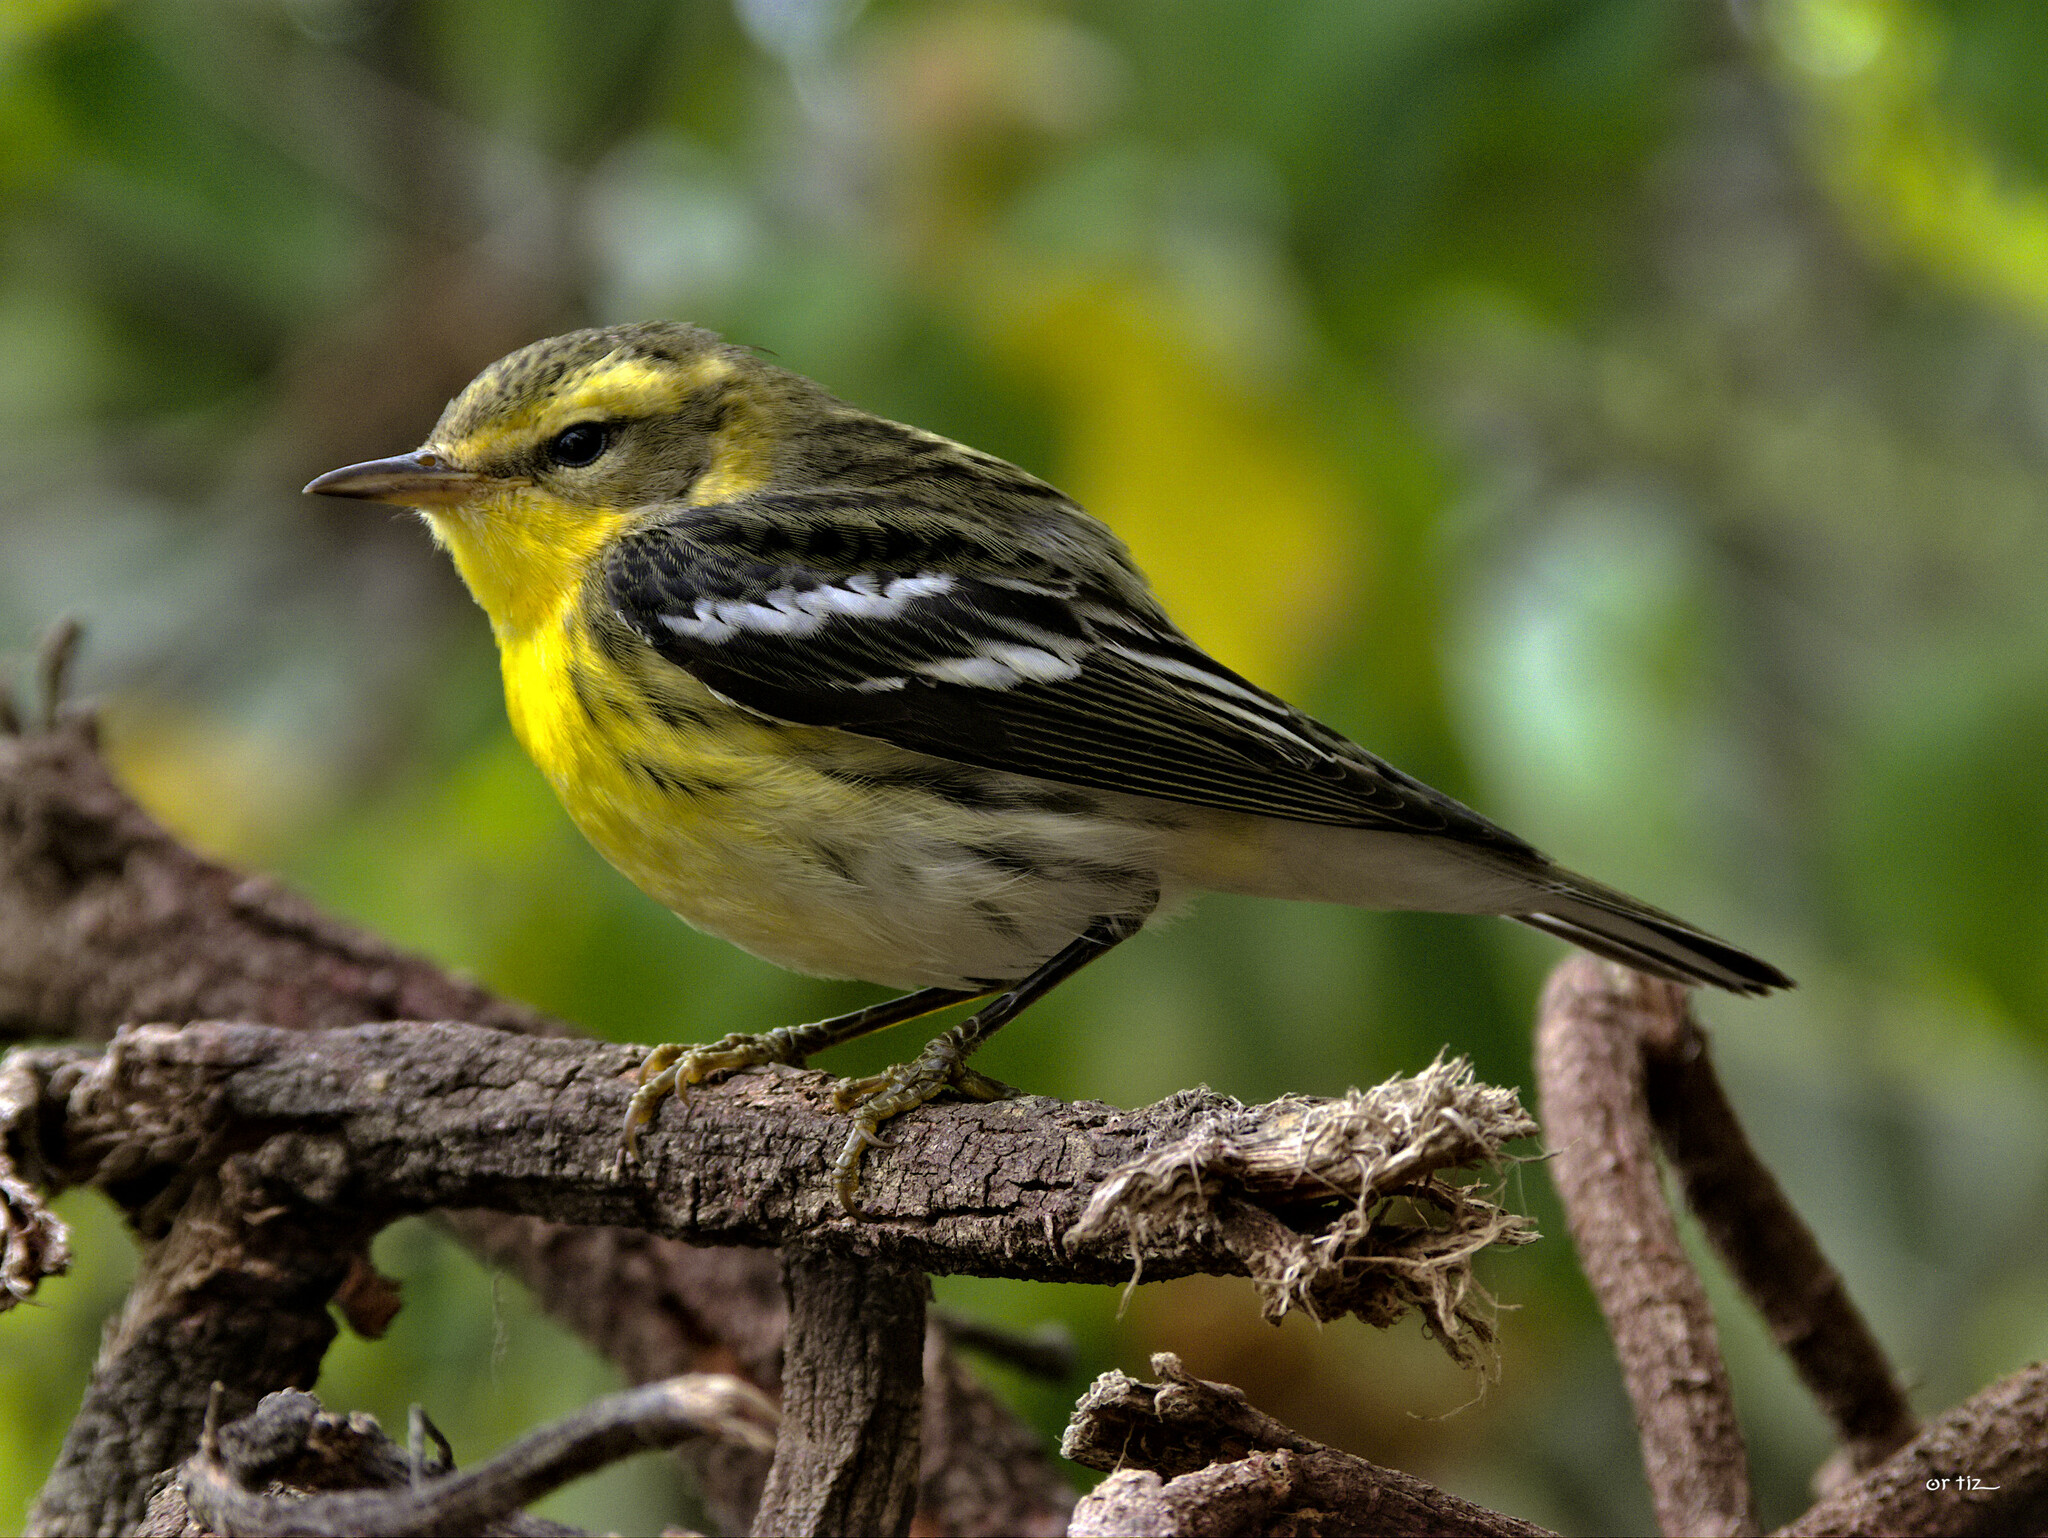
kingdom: Animalia
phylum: Chordata
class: Aves
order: Passeriformes
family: Parulidae
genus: Setophaga
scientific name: Setophaga fusca
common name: Blackburnian warbler
